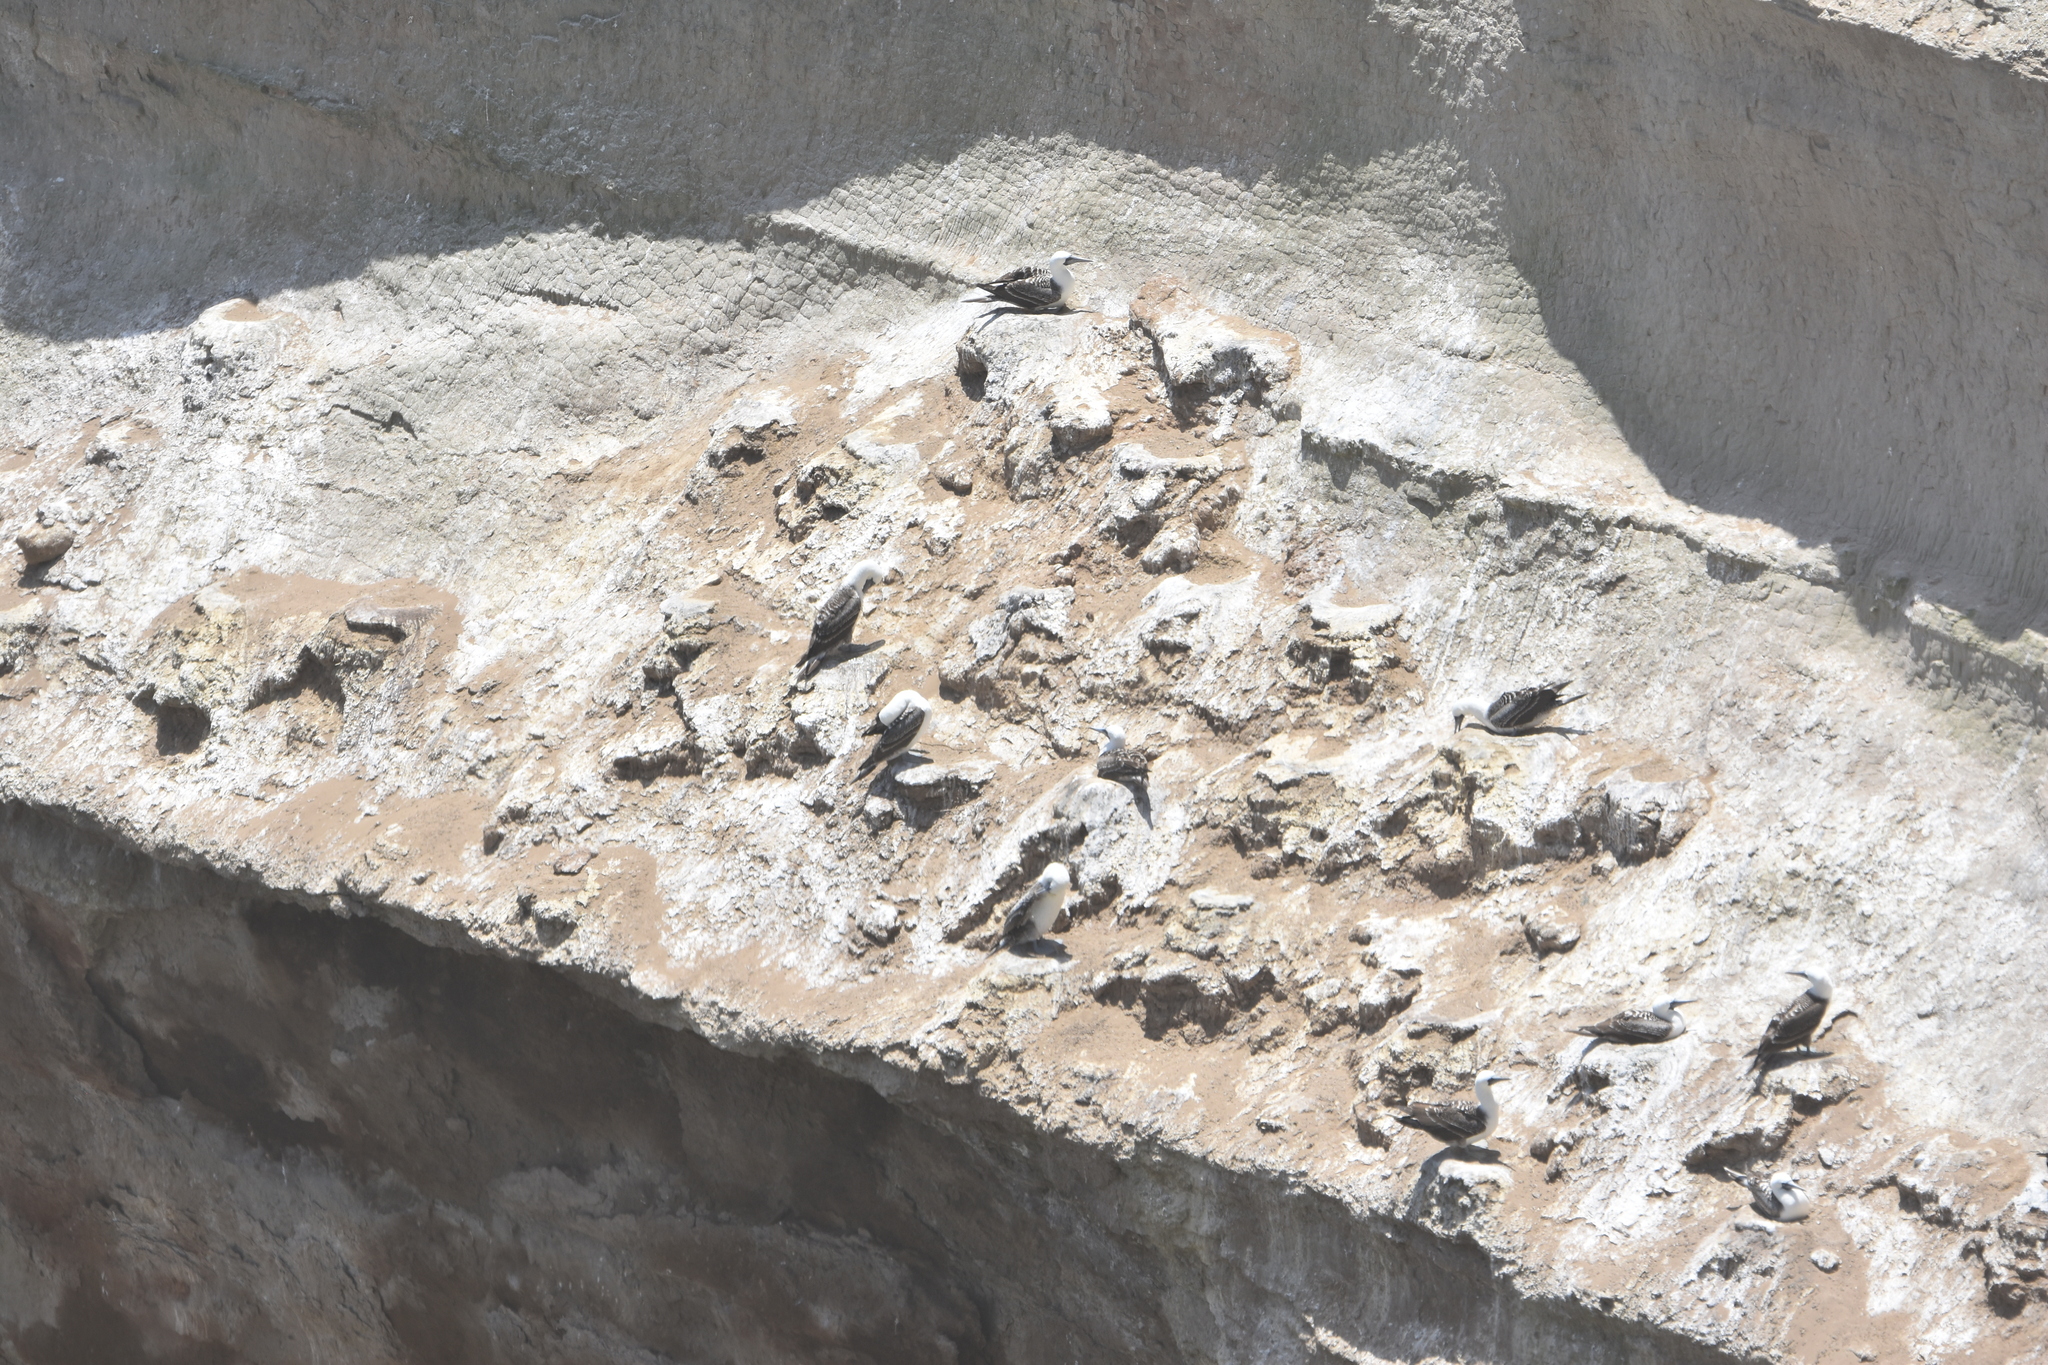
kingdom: Animalia
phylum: Chordata
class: Aves
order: Suliformes
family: Sulidae
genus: Sula
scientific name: Sula variegata
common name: Peruvian booby
